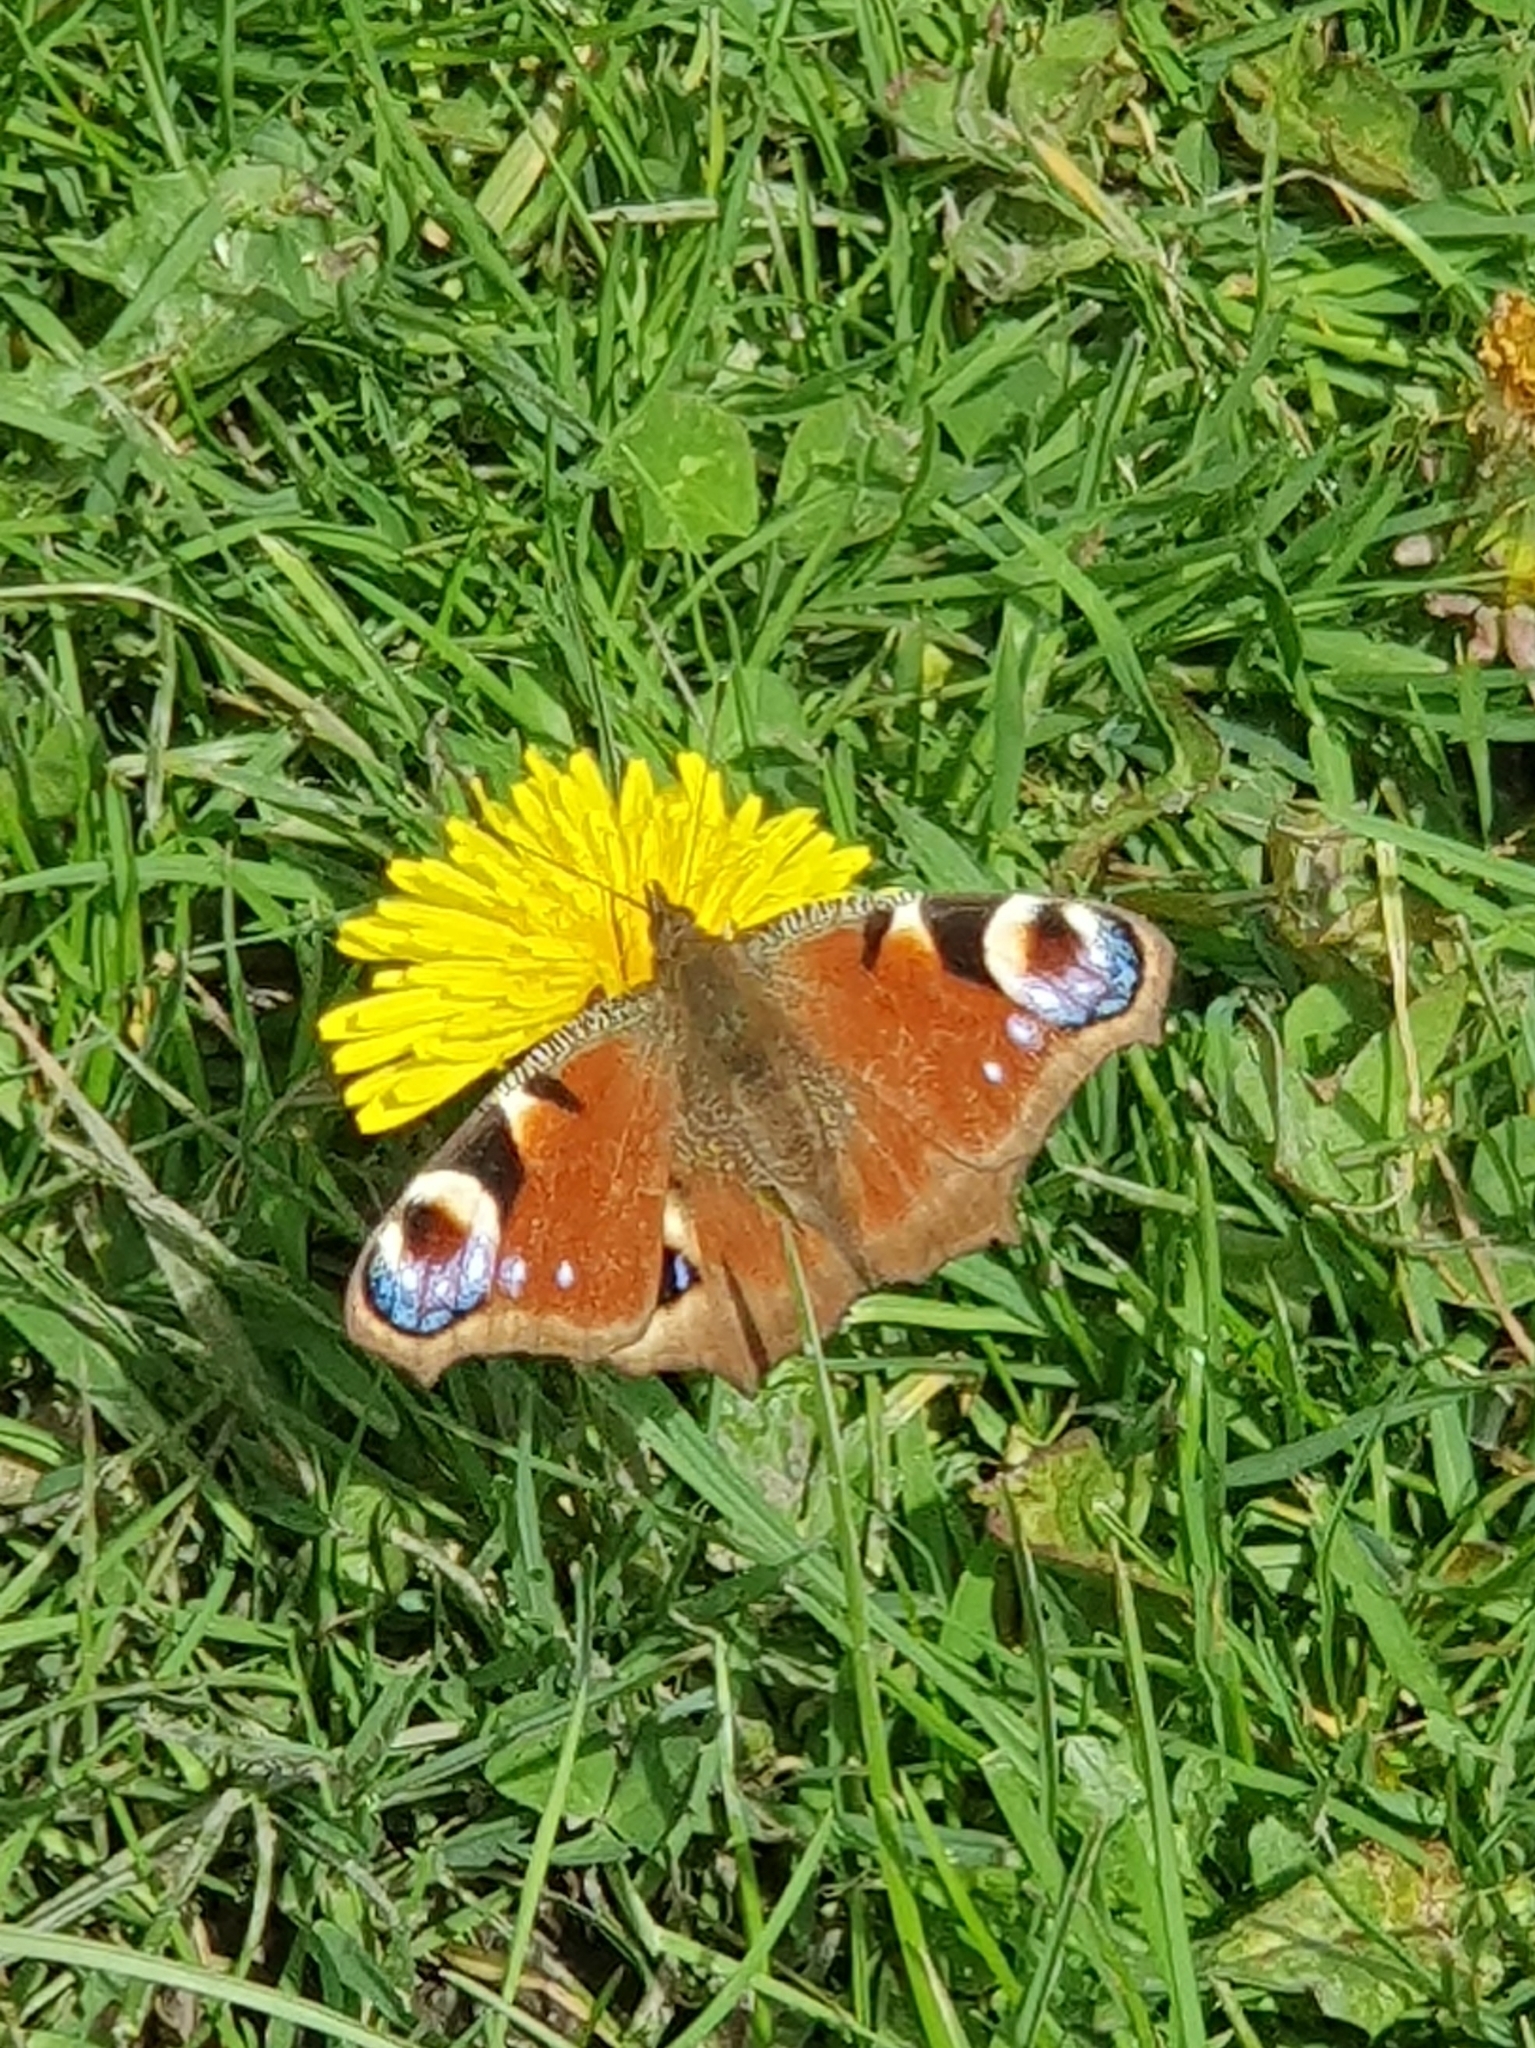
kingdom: Animalia
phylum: Arthropoda
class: Insecta
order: Lepidoptera
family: Nymphalidae
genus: Aglais
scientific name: Aglais io
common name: Peacock
